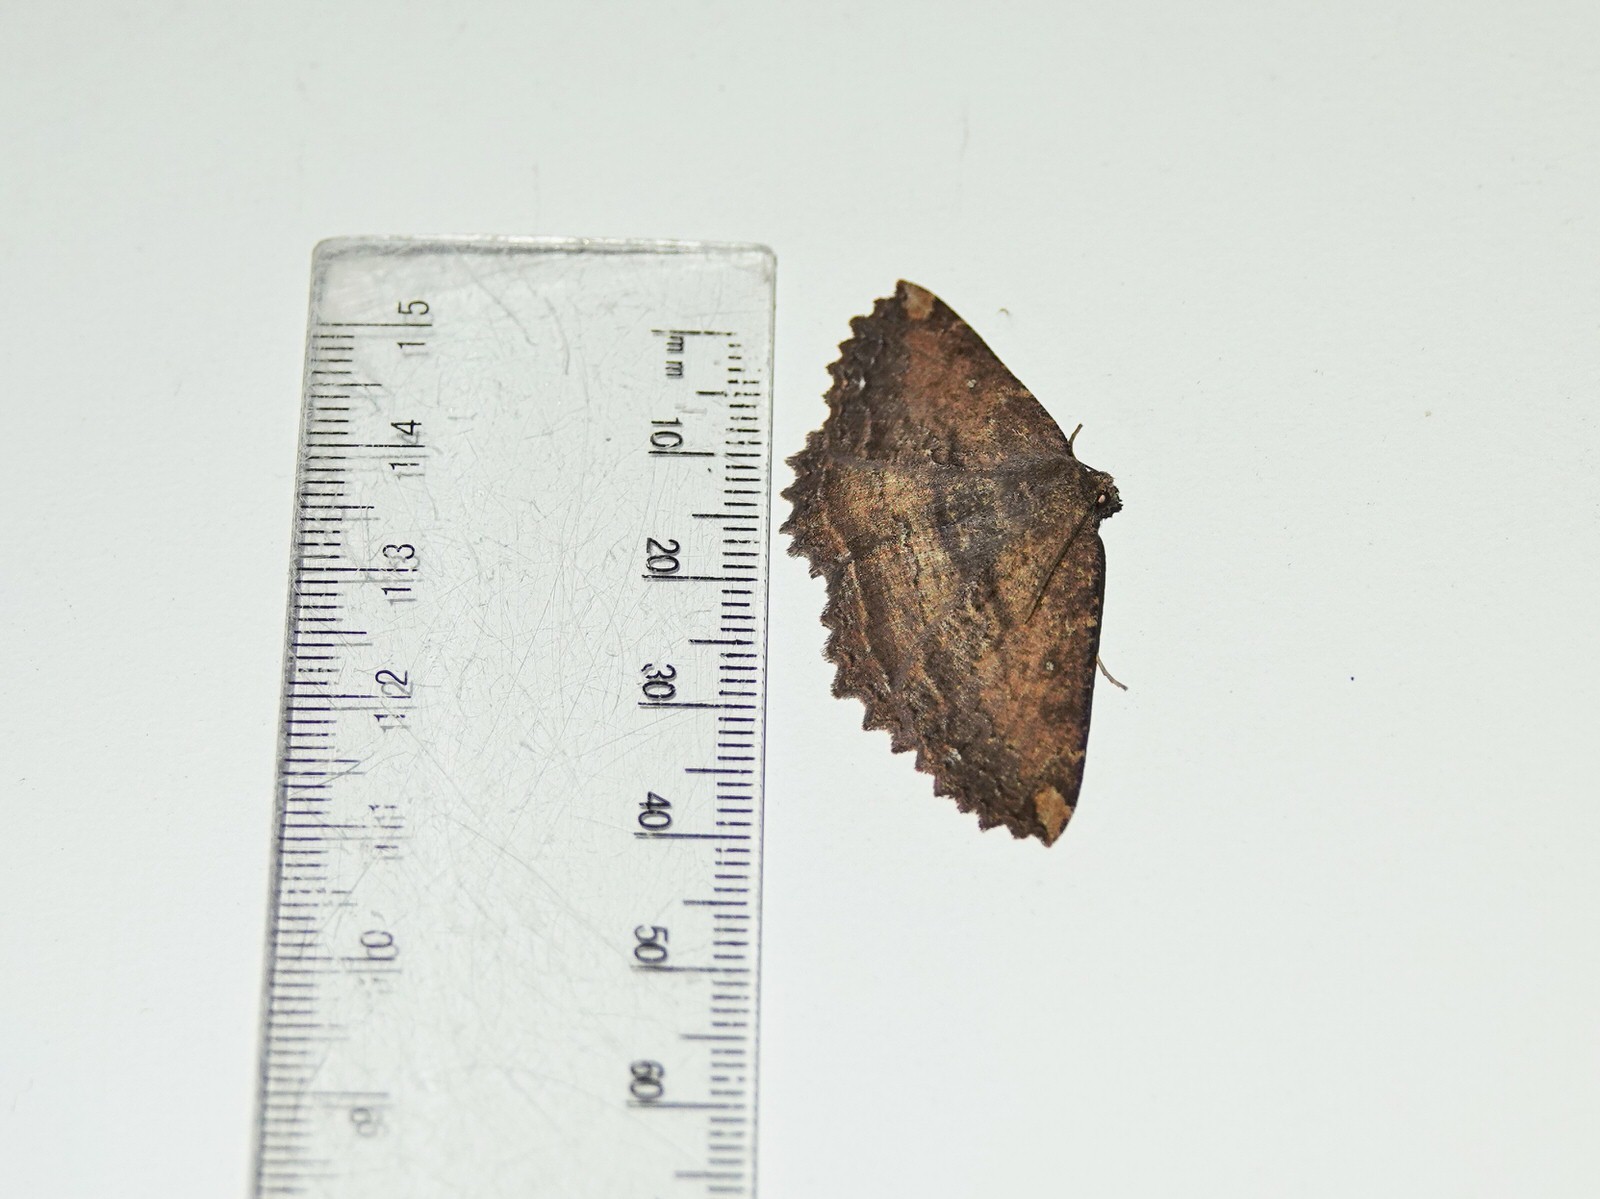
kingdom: Animalia
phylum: Arthropoda
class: Insecta
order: Lepidoptera
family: Geometridae
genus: Gellonia
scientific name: Gellonia dejectaria
